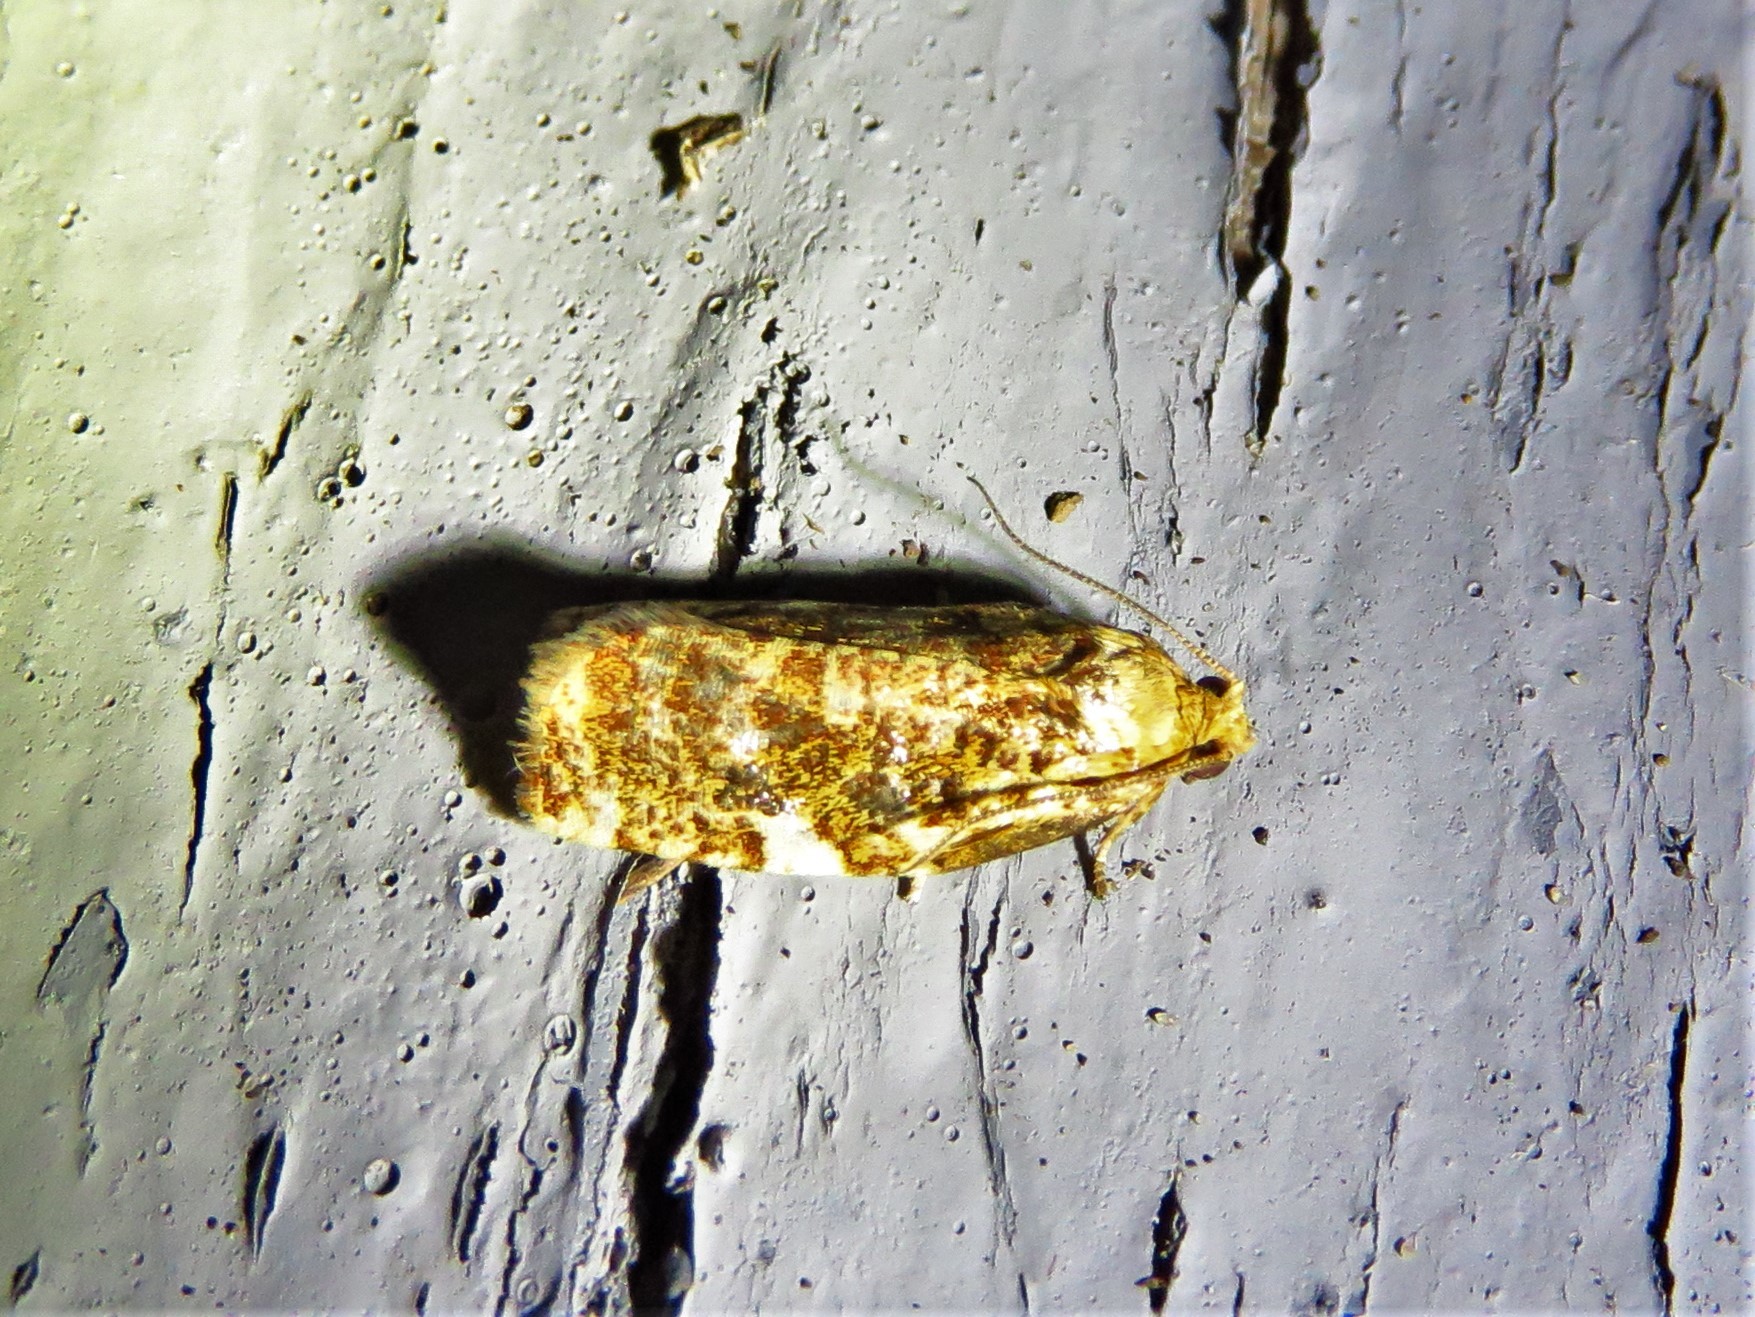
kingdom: Animalia
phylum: Arthropoda
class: Insecta
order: Lepidoptera
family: Tortricidae
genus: Archips
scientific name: Archips argyrospila
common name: Fruit-tree leafroller moth
